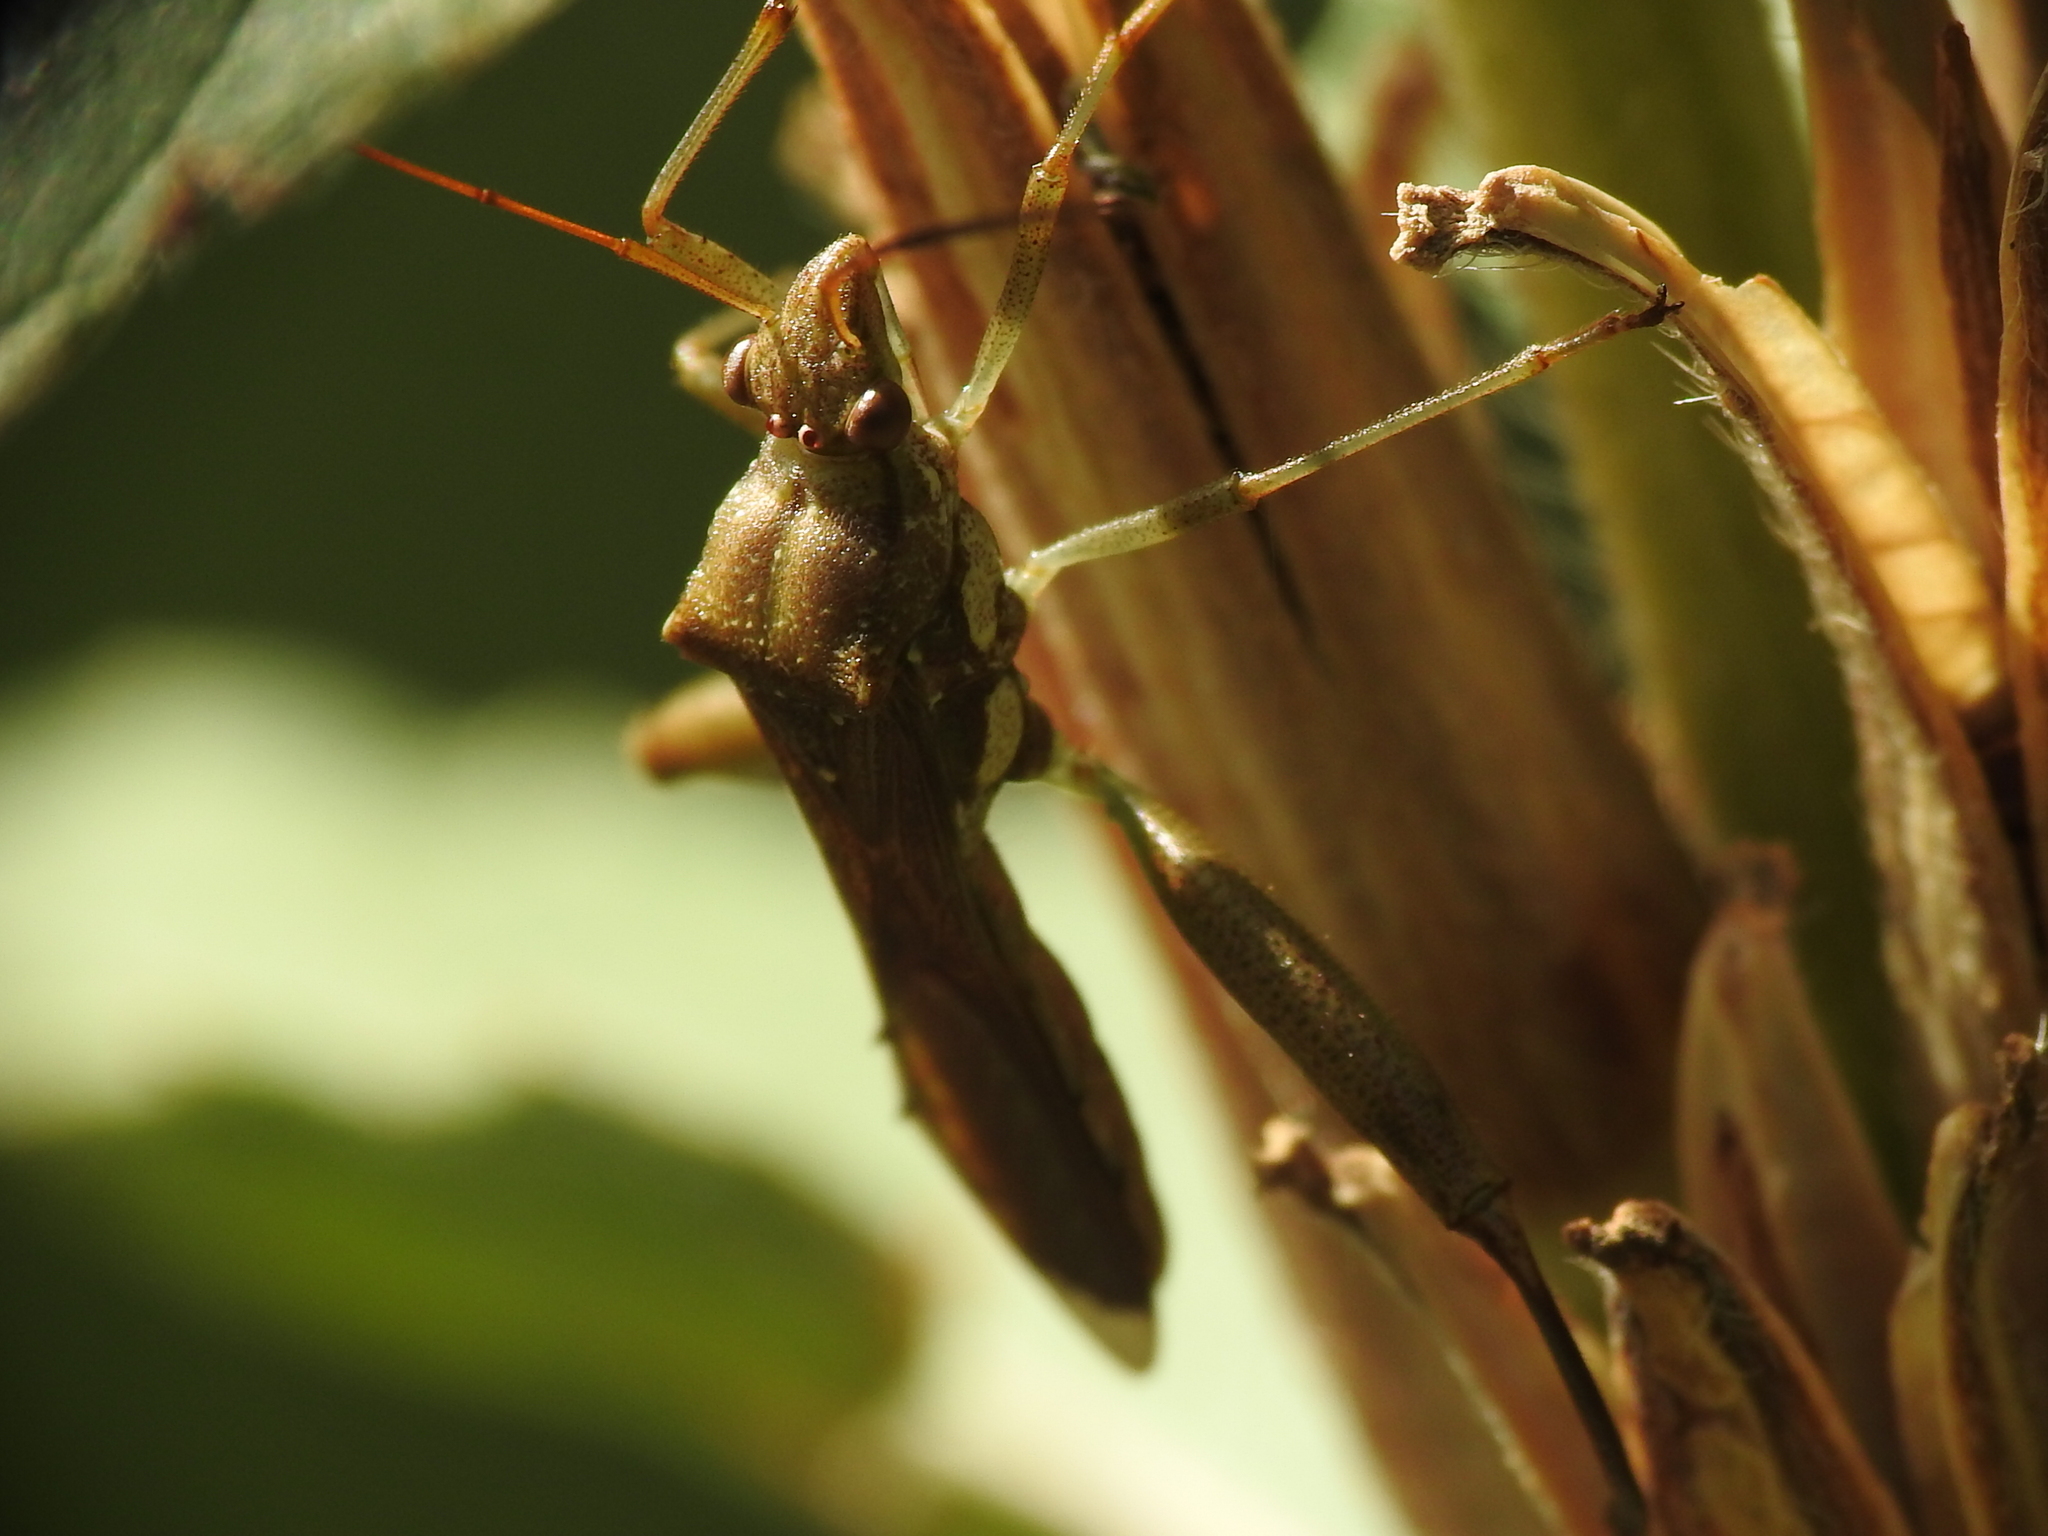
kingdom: Animalia
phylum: Arthropoda
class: Insecta
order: Hemiptera
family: Alydidae
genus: Hyalymenus
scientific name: Hyalymenus tarsatus
